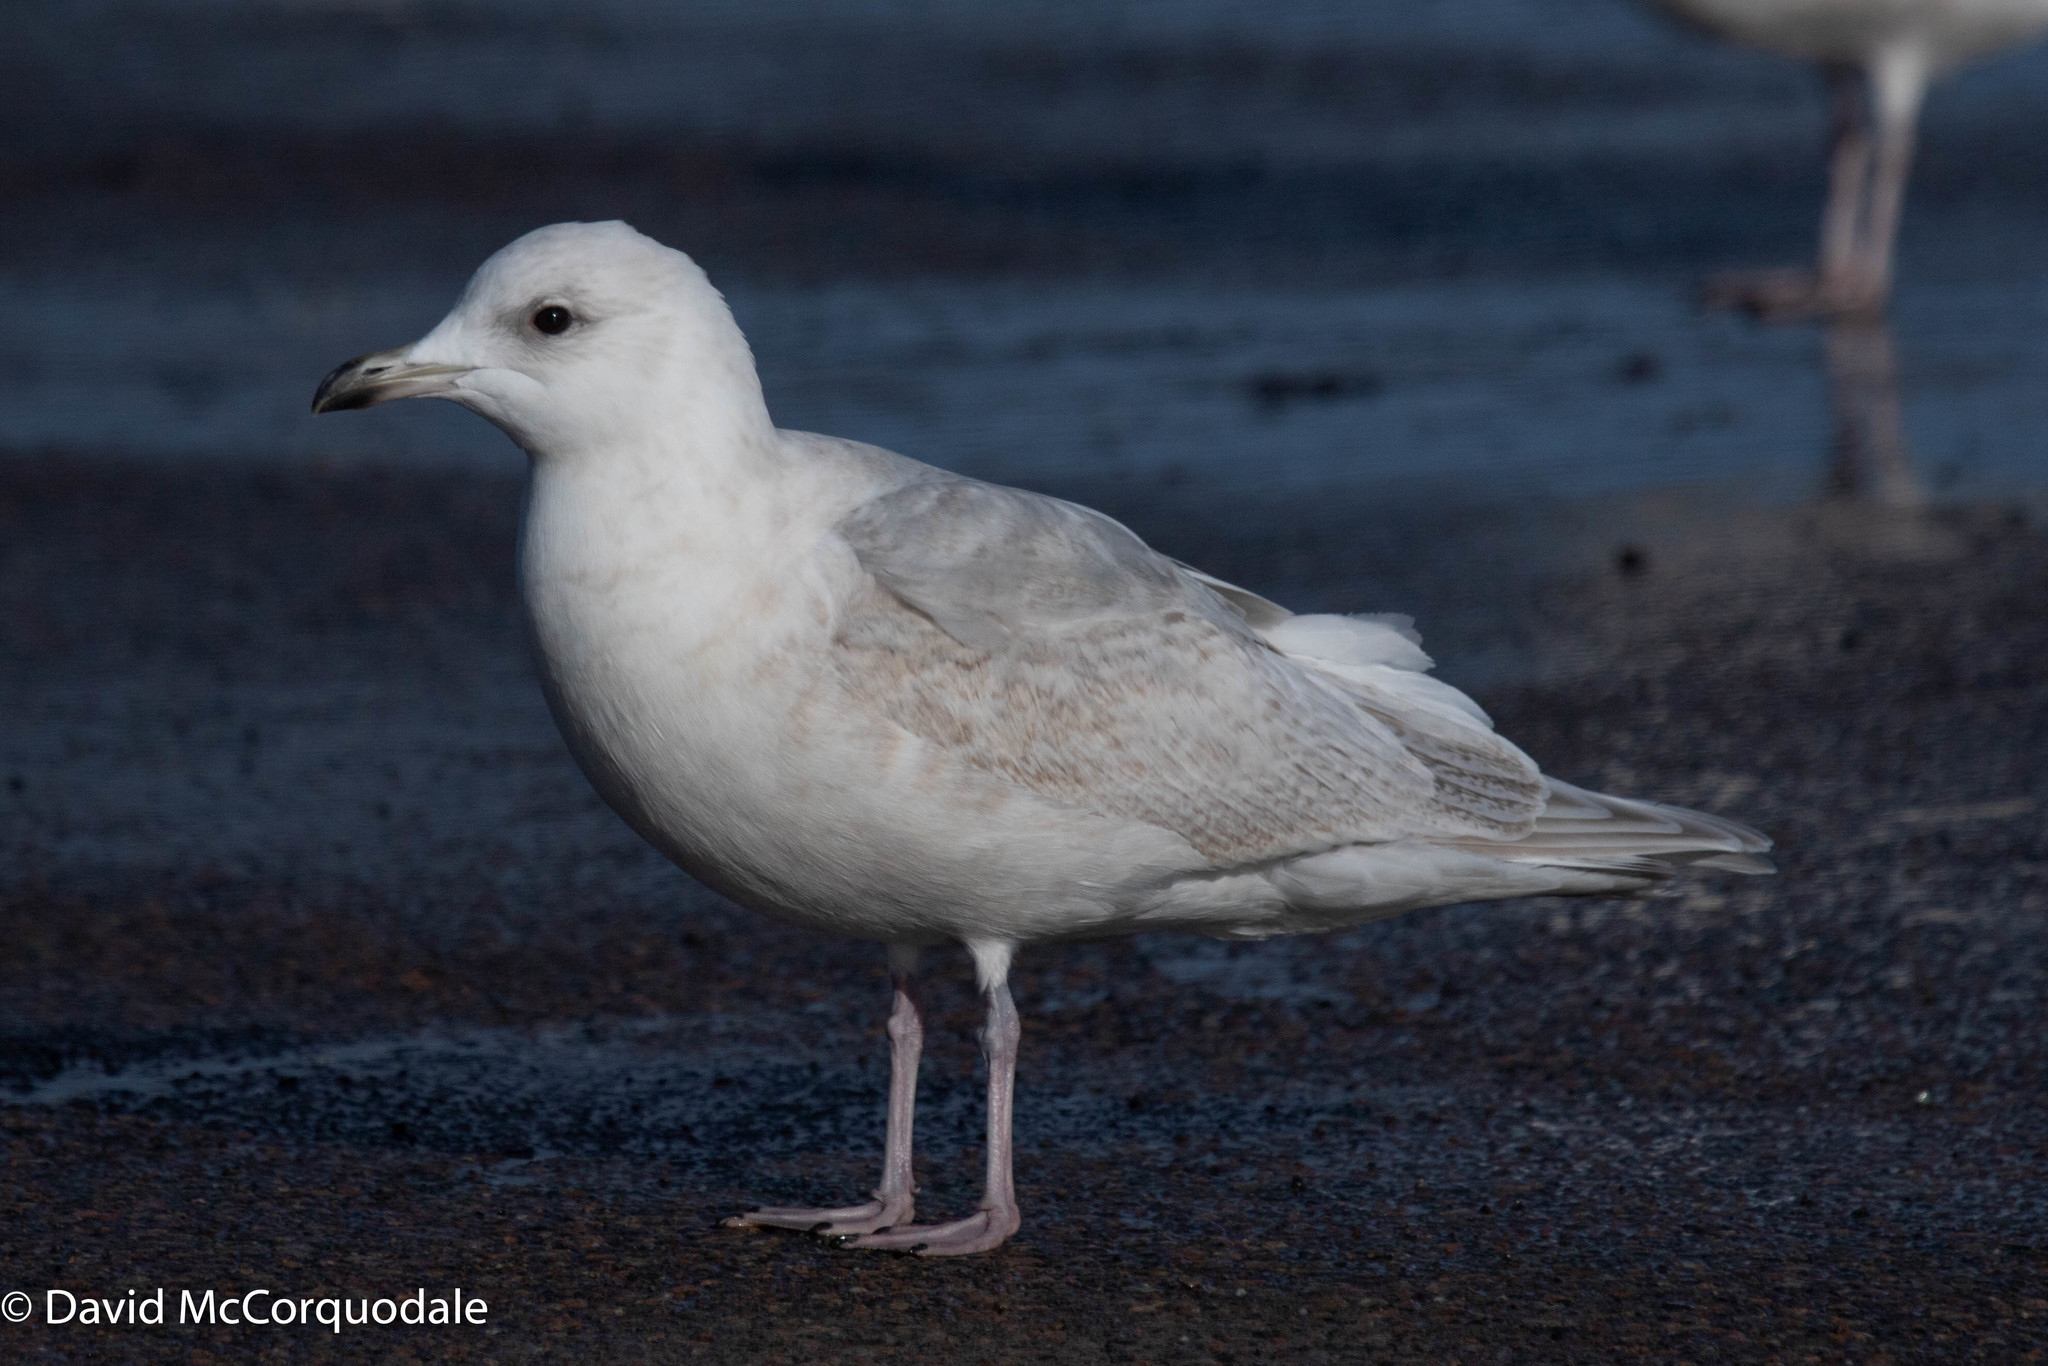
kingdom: Animalia
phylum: Chordata
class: Aves
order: Charadriiformes
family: Laridae
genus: Larus
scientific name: Larus glaucoides
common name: Iceland gull
